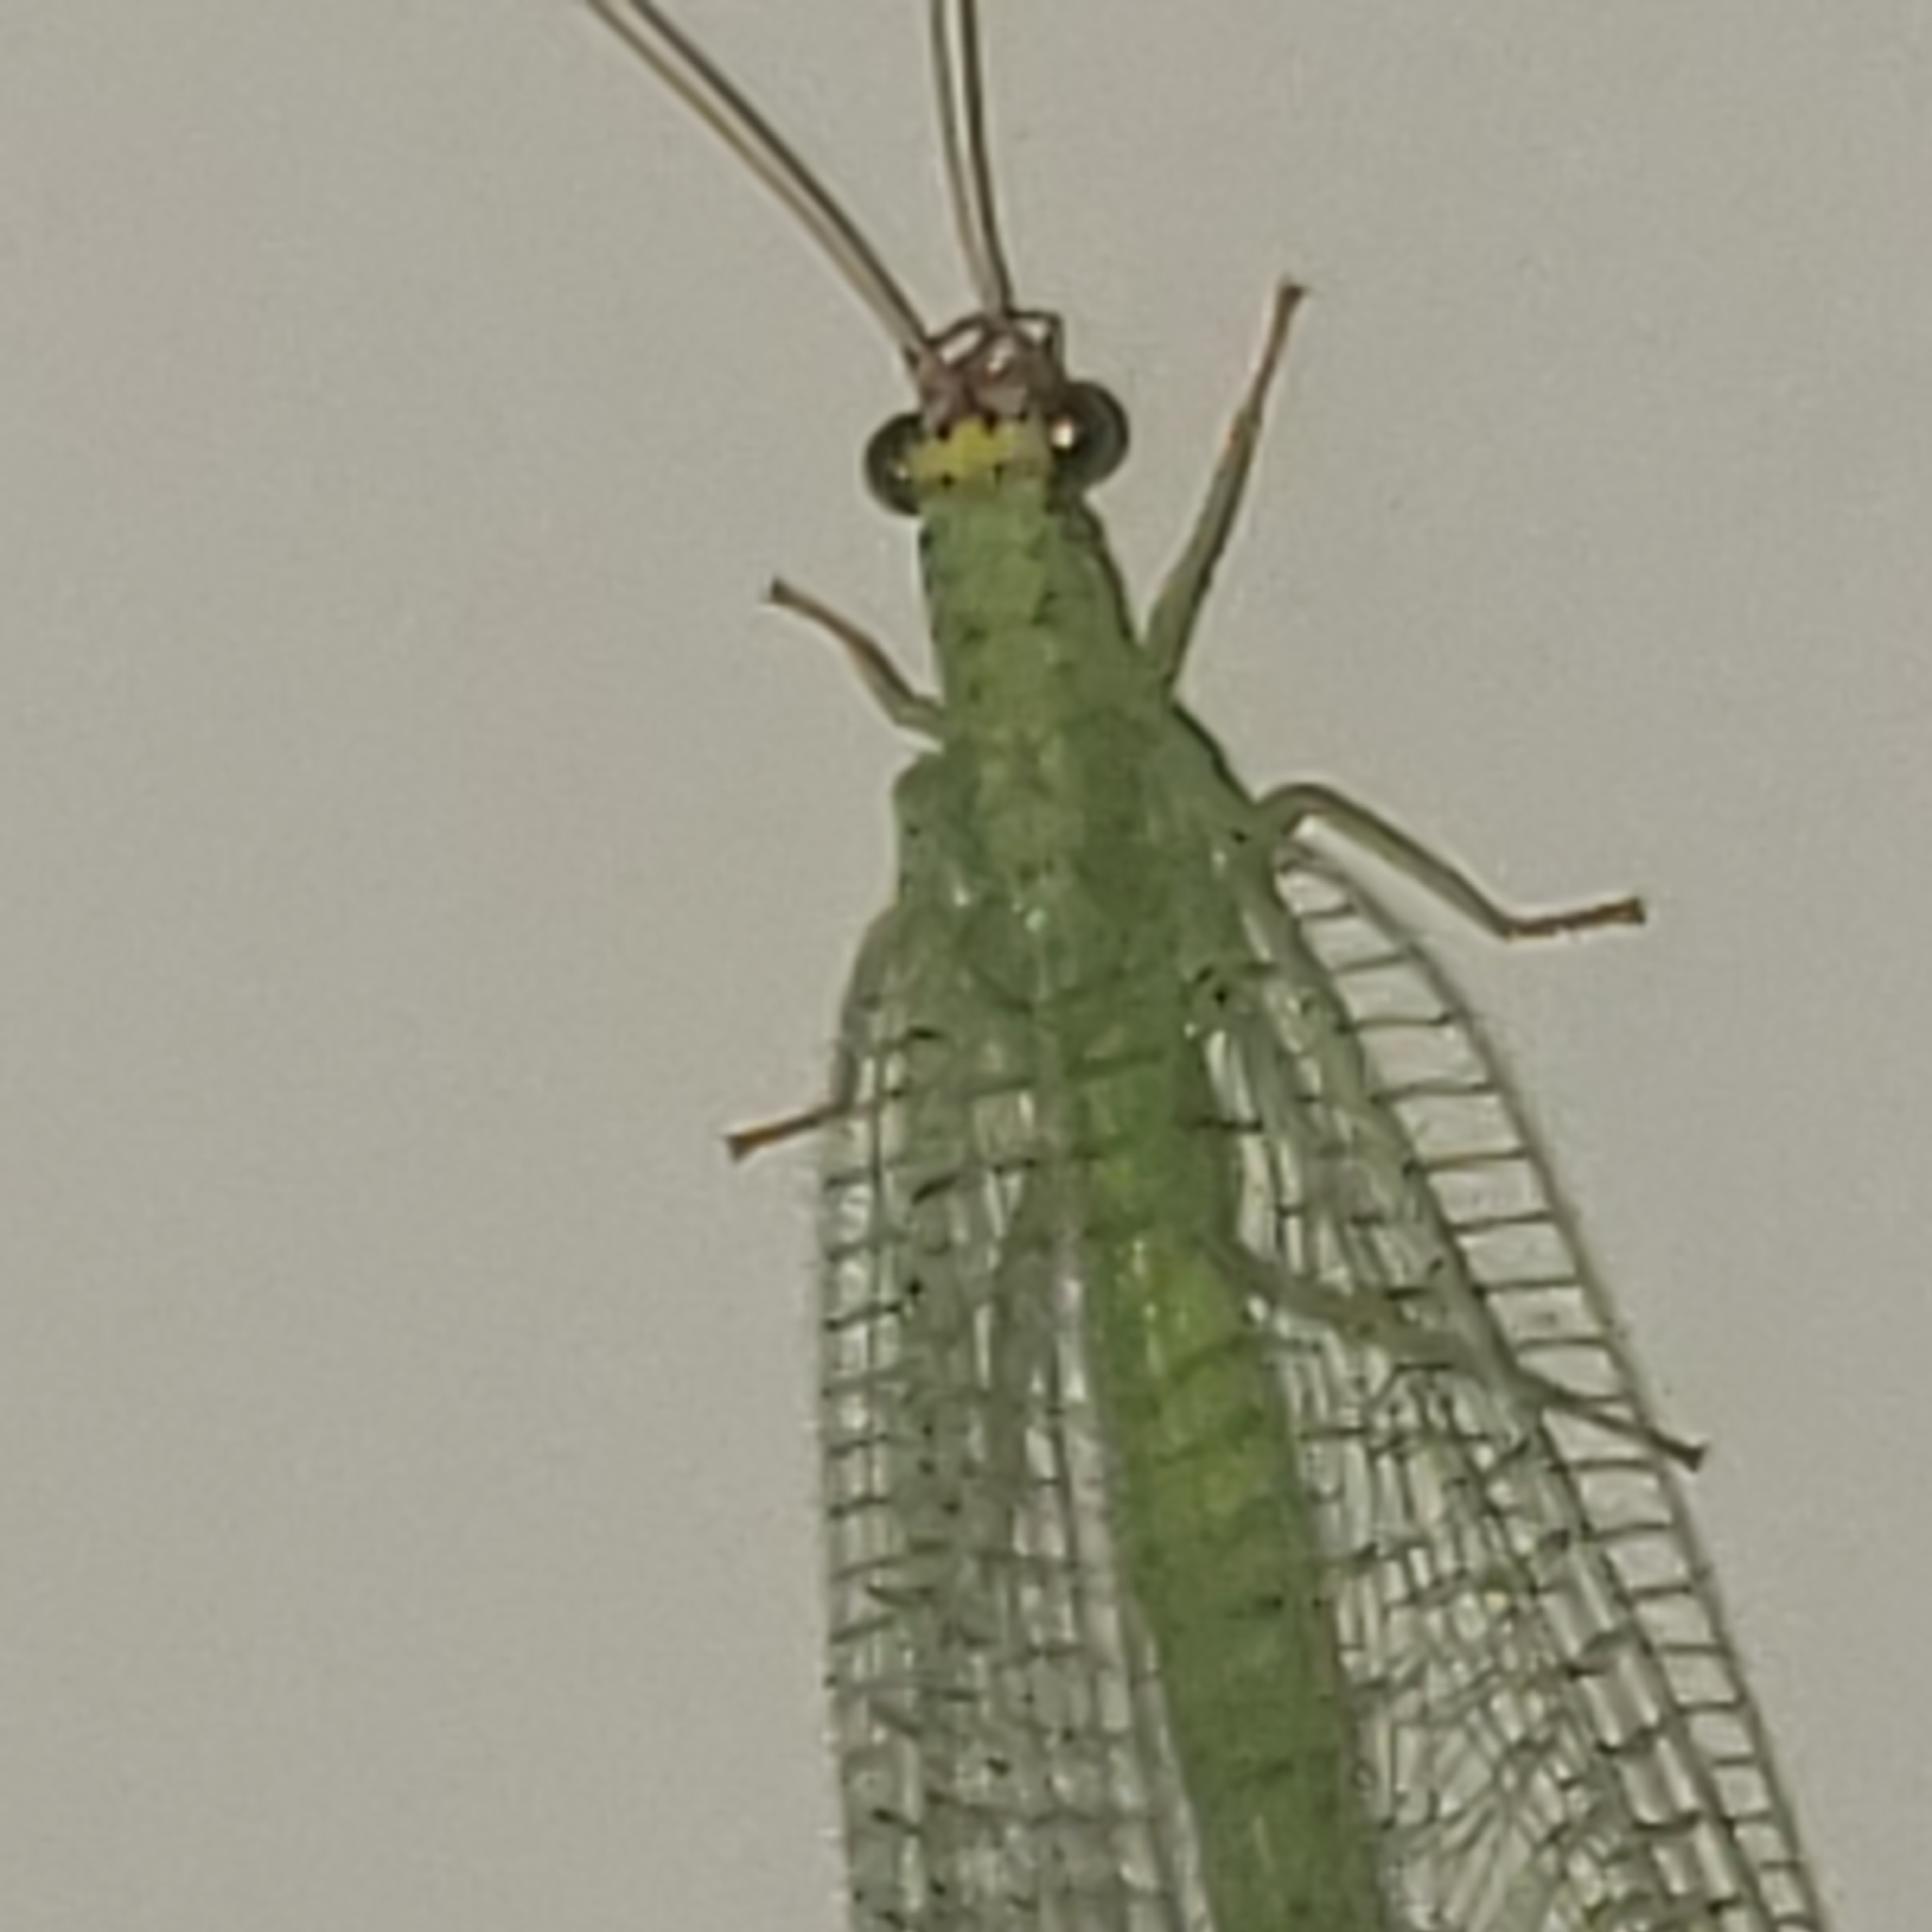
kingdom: Animalia
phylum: Arthropoda
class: Insecta
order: Neuroptera
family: Chrysopidae
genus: Chrysopa
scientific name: Chrysopa oculata
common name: Golden-eyed lacewing
